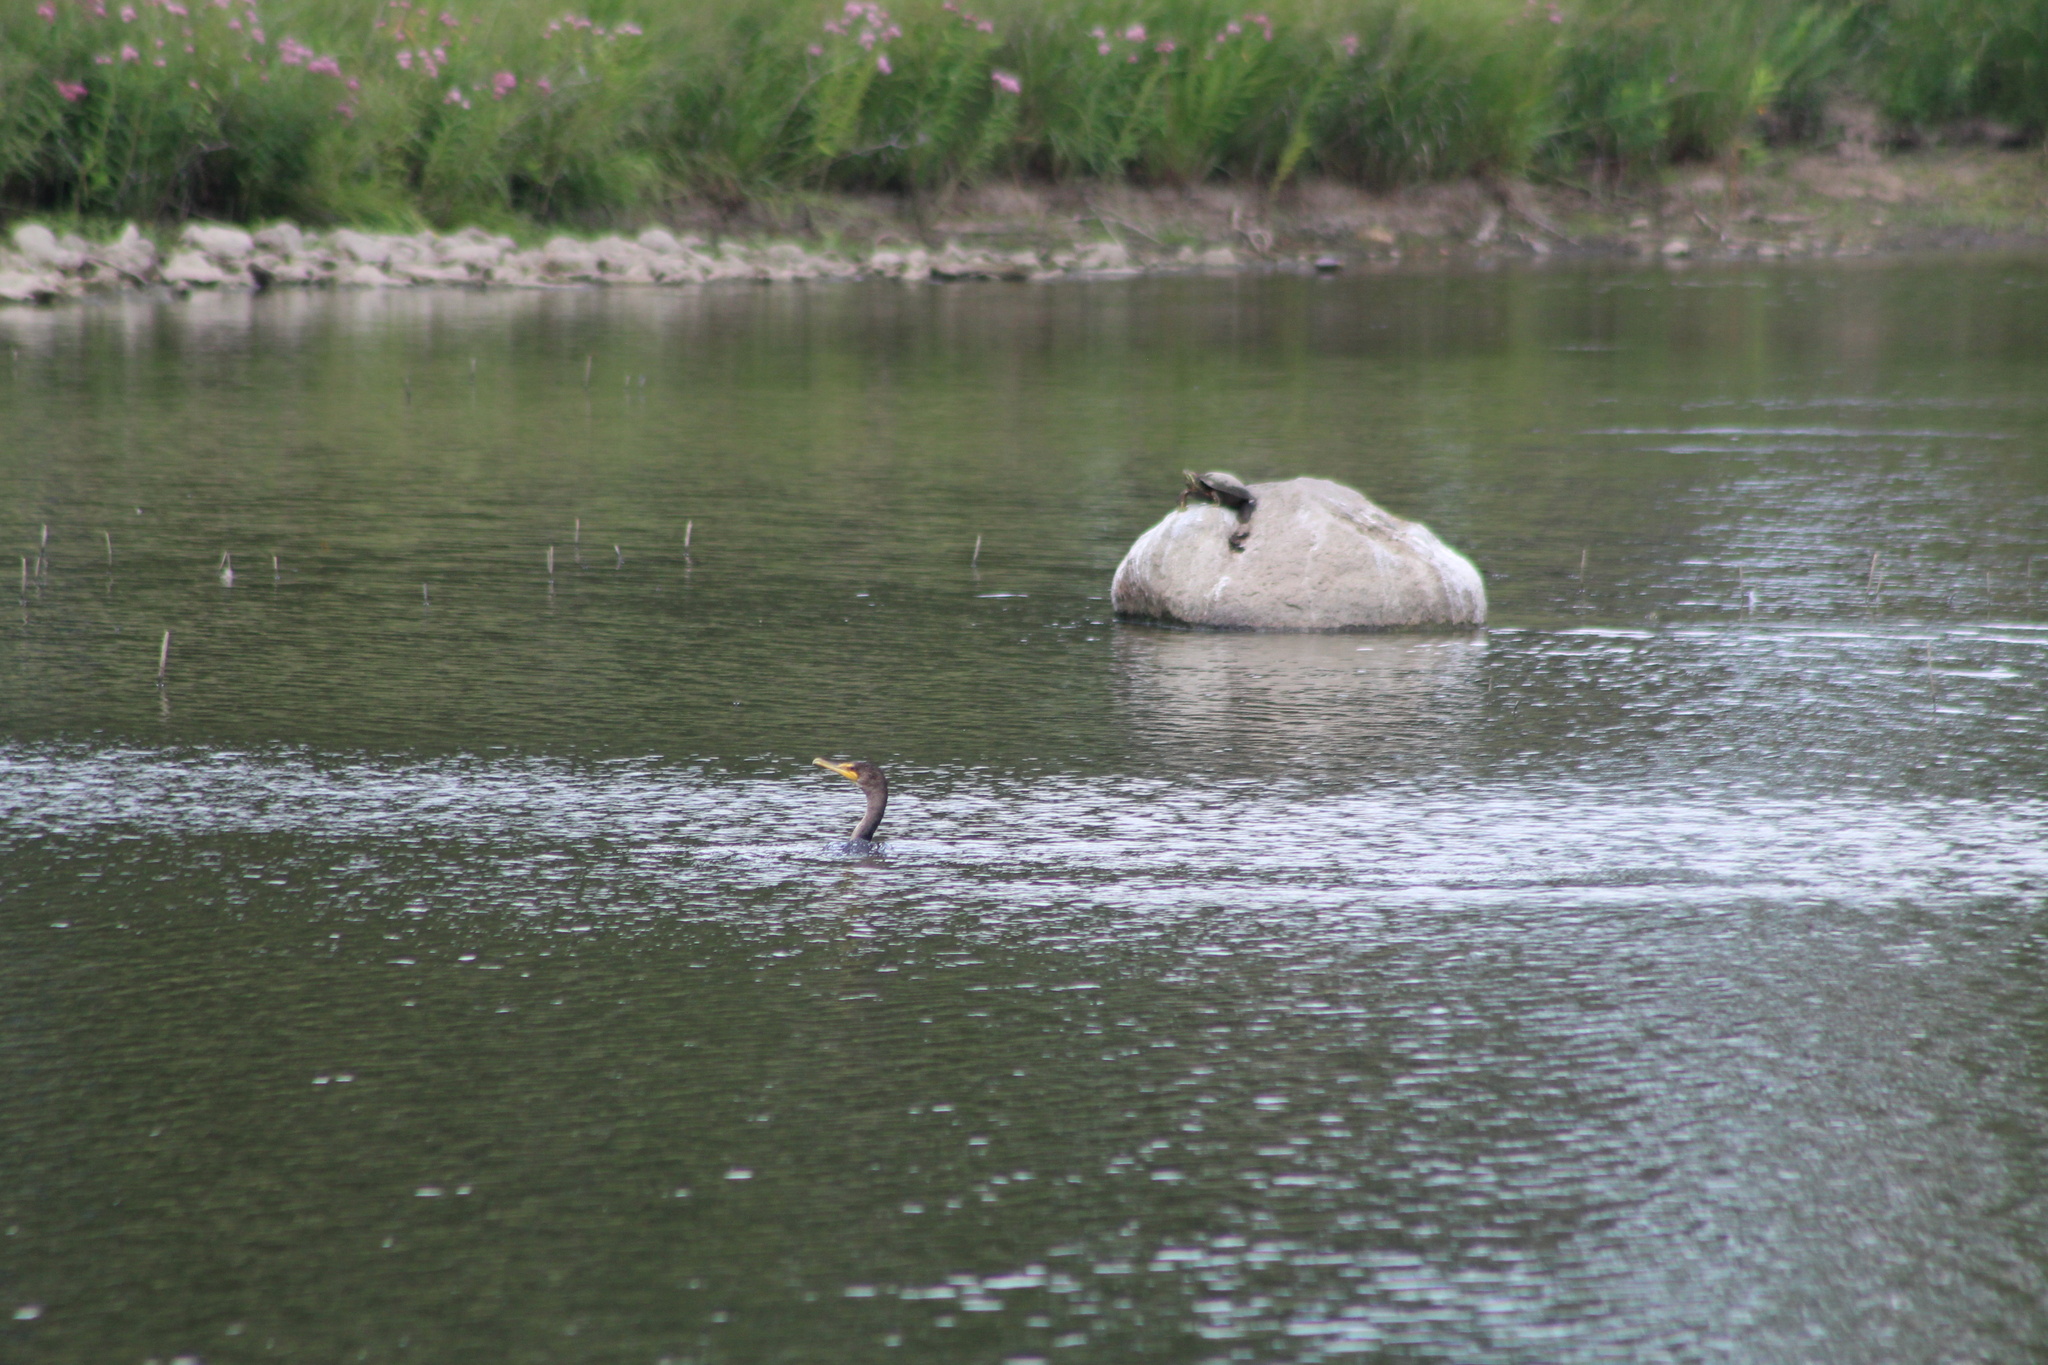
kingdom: Animalia
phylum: Chordata
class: Aves
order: Suliformes
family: Phalacrocoracidae
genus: Phalacrocorax
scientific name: Phalacrocorax auritus
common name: Double-crested cormorant
